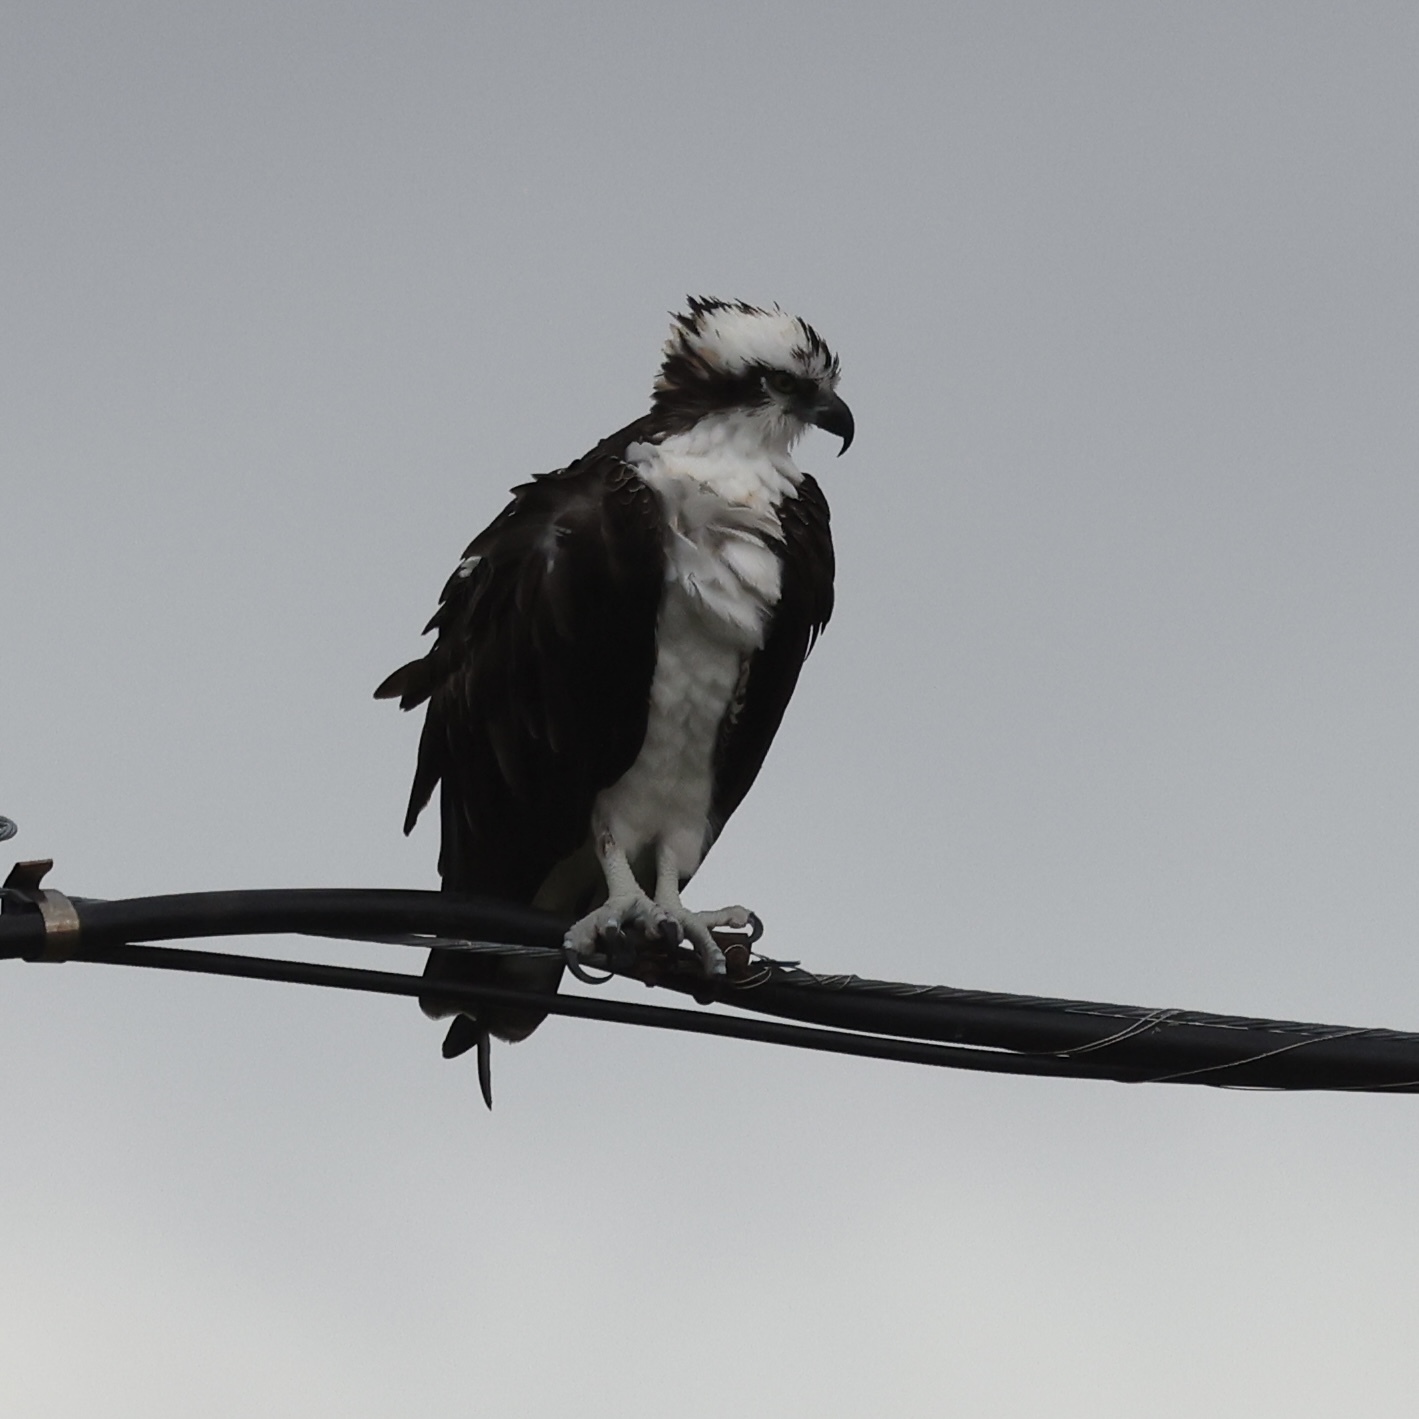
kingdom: Animalia
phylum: Chordata
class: Aves
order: Accipitriformes
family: Pandionidae
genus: Pandion
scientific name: Pandion haliaetus
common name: Osprey
